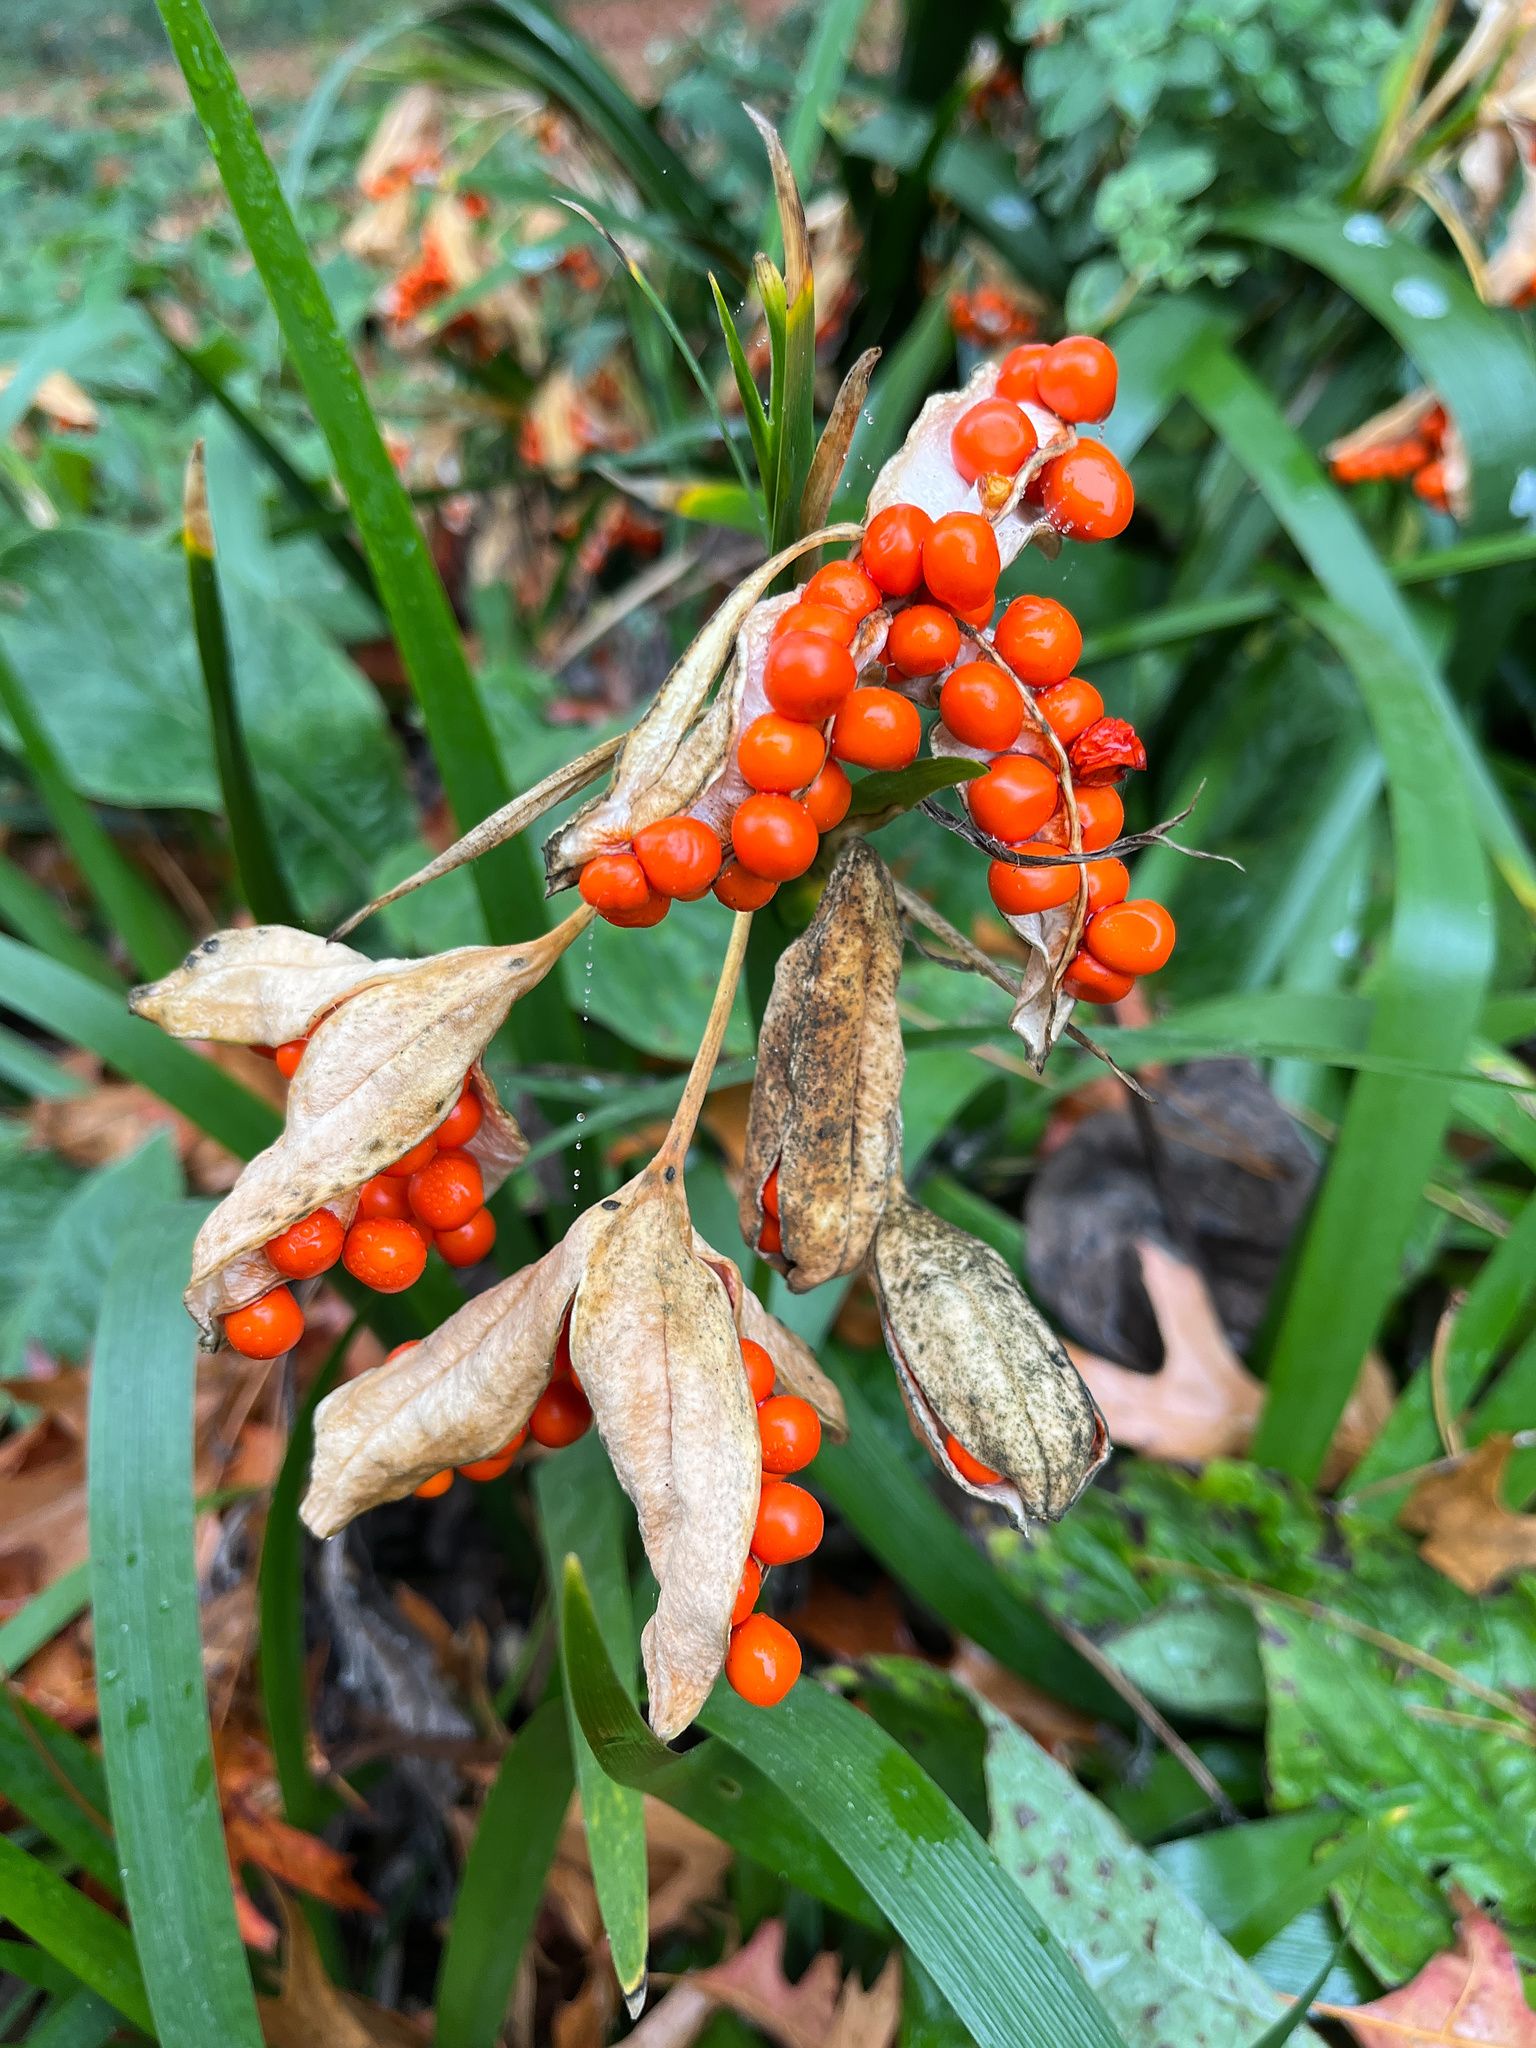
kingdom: Plantae
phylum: Tracheophyta
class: Liliopsida
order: Asparagales
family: Iridaceae
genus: Iris
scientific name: Iris foetidissima
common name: Stinking iris
